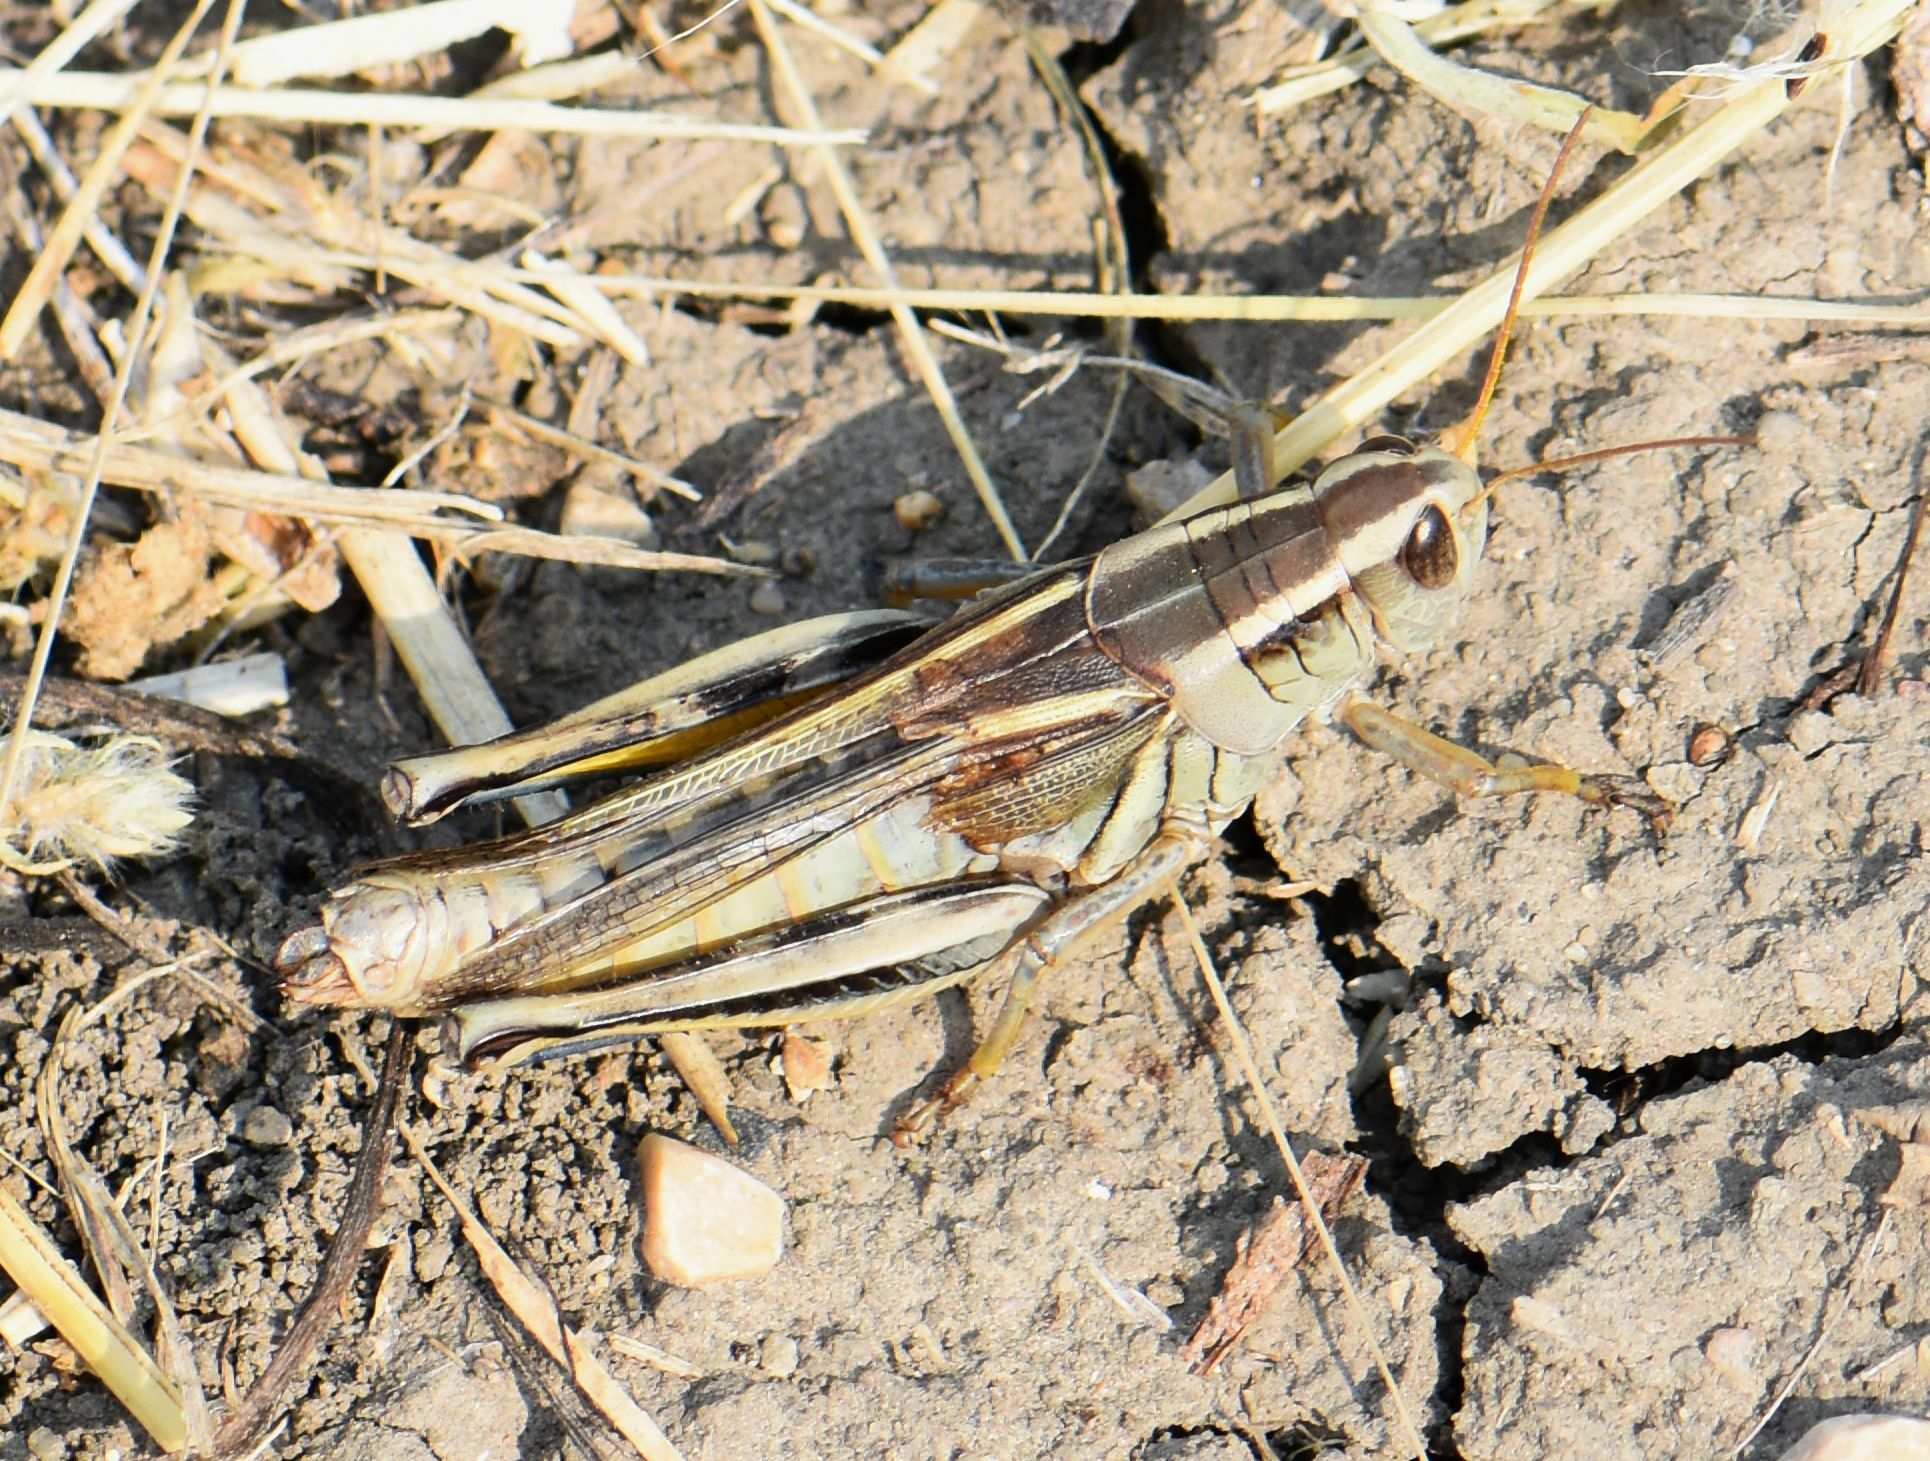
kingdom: Animalia
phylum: Arthropoda
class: Insecta
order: Orthoptera
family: Acrididae
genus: Melanoplus
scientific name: Melanoplus bivittatus
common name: Two-striped grasshopper
